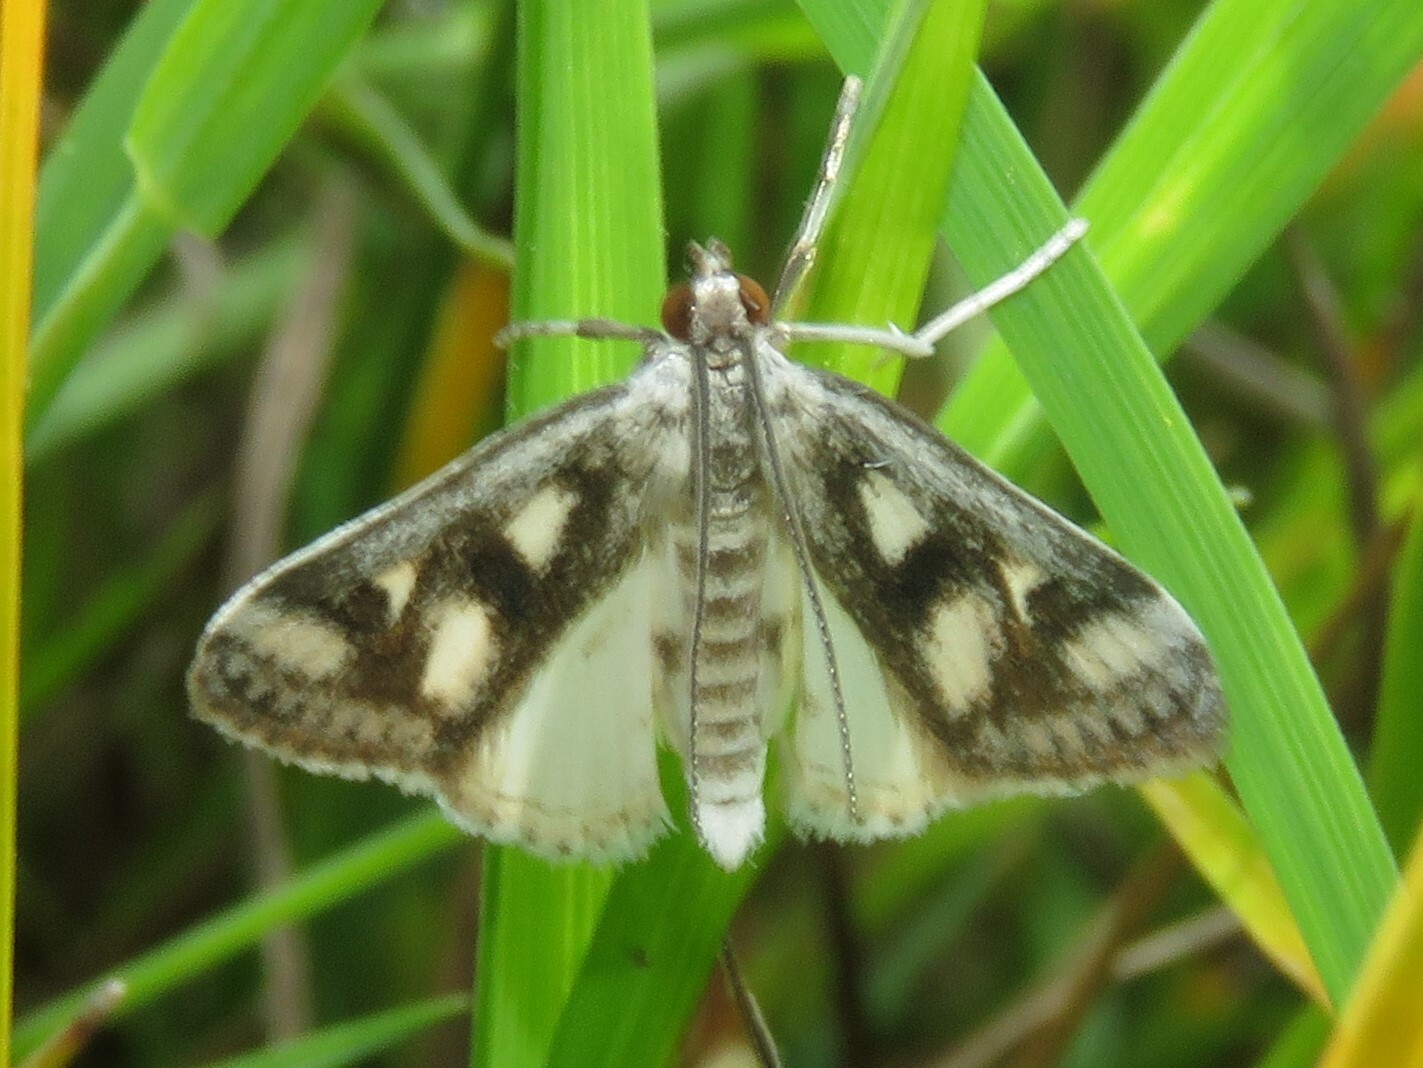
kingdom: Animalia
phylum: Arthropoda
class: Insecta
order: Lepidoptera
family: Crambidae
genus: Parapoynx
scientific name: Parapoynx maculalis
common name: Polymorphic pondweed moth
